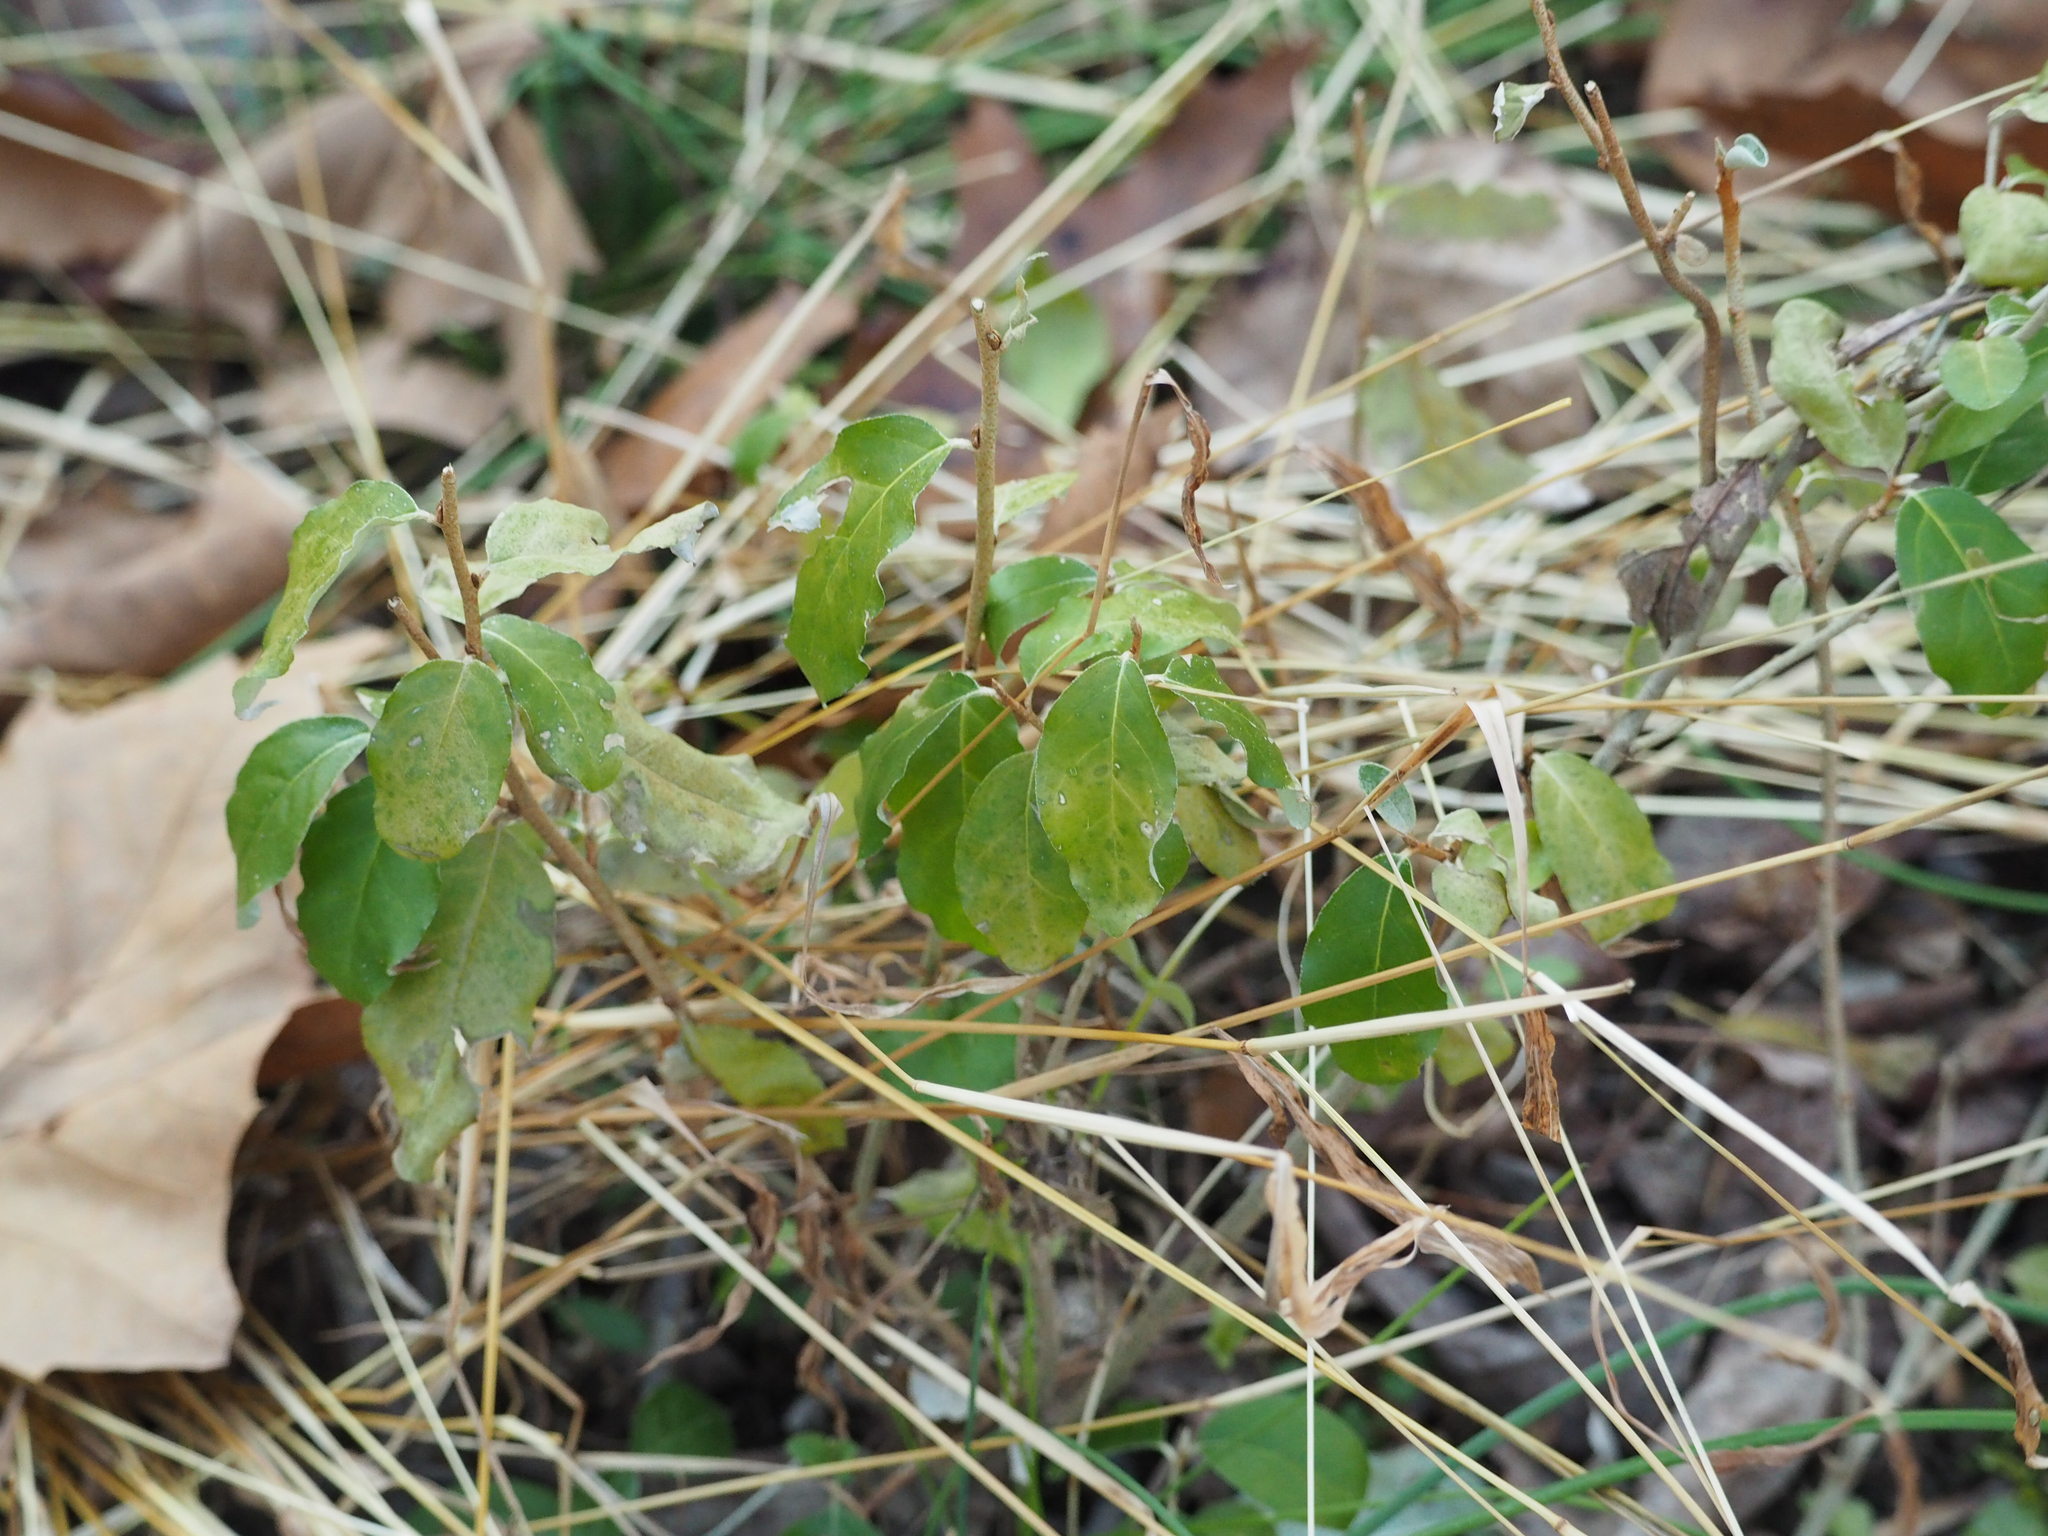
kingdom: Plantae
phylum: Tracheophyta
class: Magnoliopsida
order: Rosales
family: Elaeagnaceae
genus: Elaeagnus
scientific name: Elaeagnus umbellata
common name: Autumn olive
